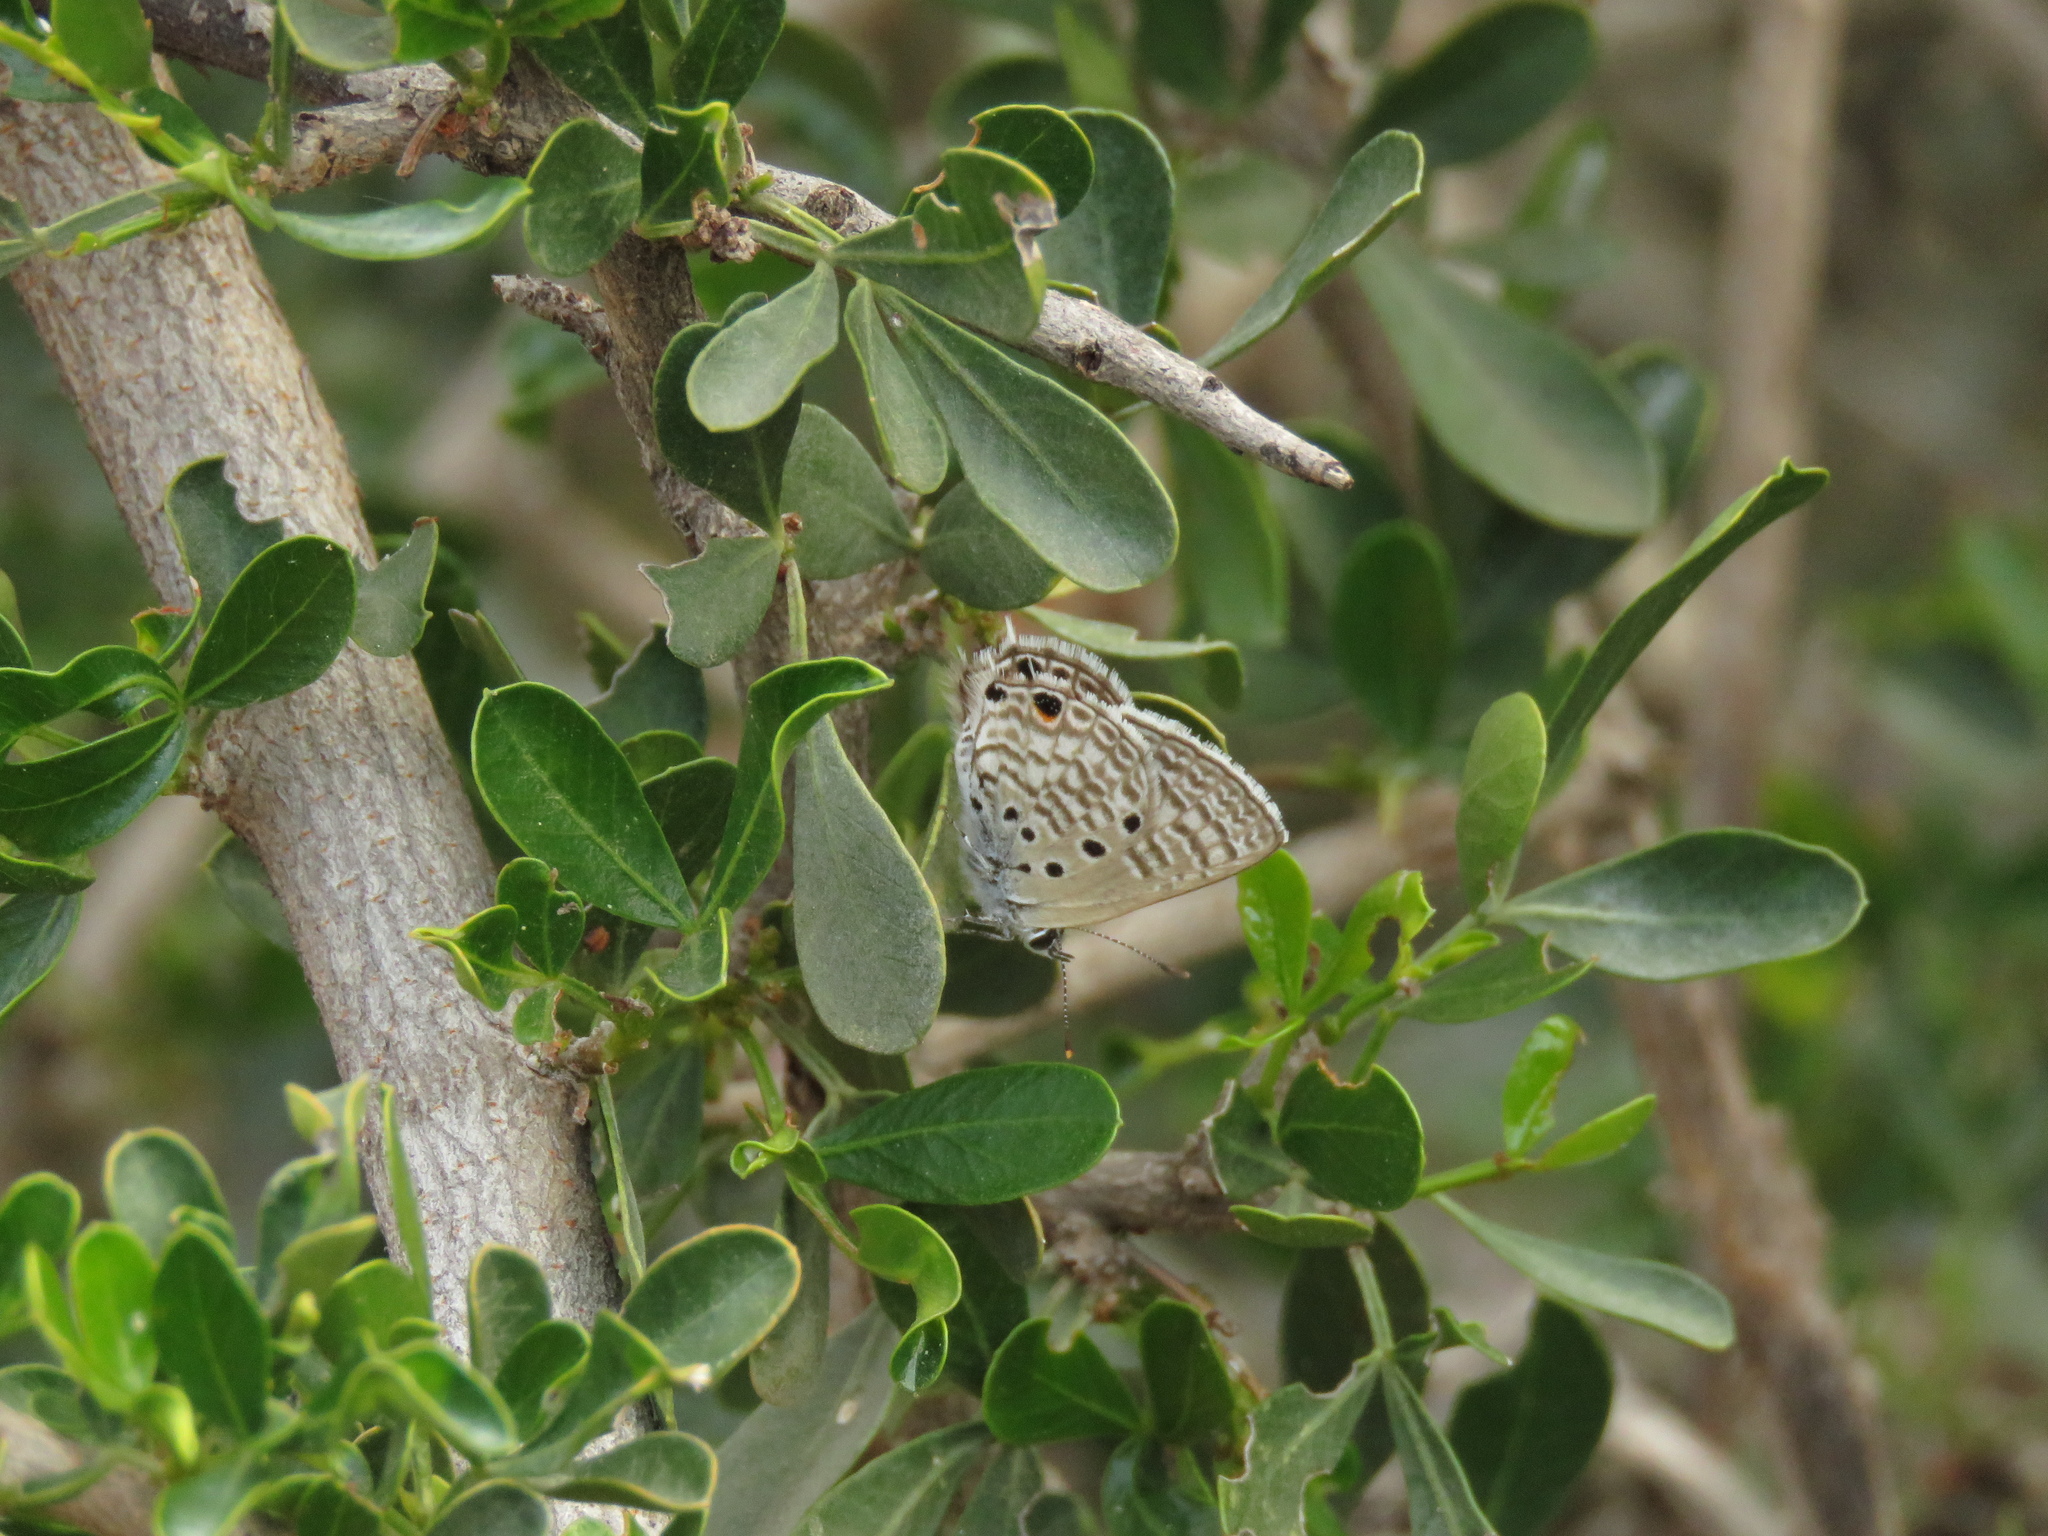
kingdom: Animalia
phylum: Arthropoda
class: Insecta
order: Lepidoptera
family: Lycaenidae
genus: Anthene
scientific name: Anthene amarah
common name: Black-striped hairtail
